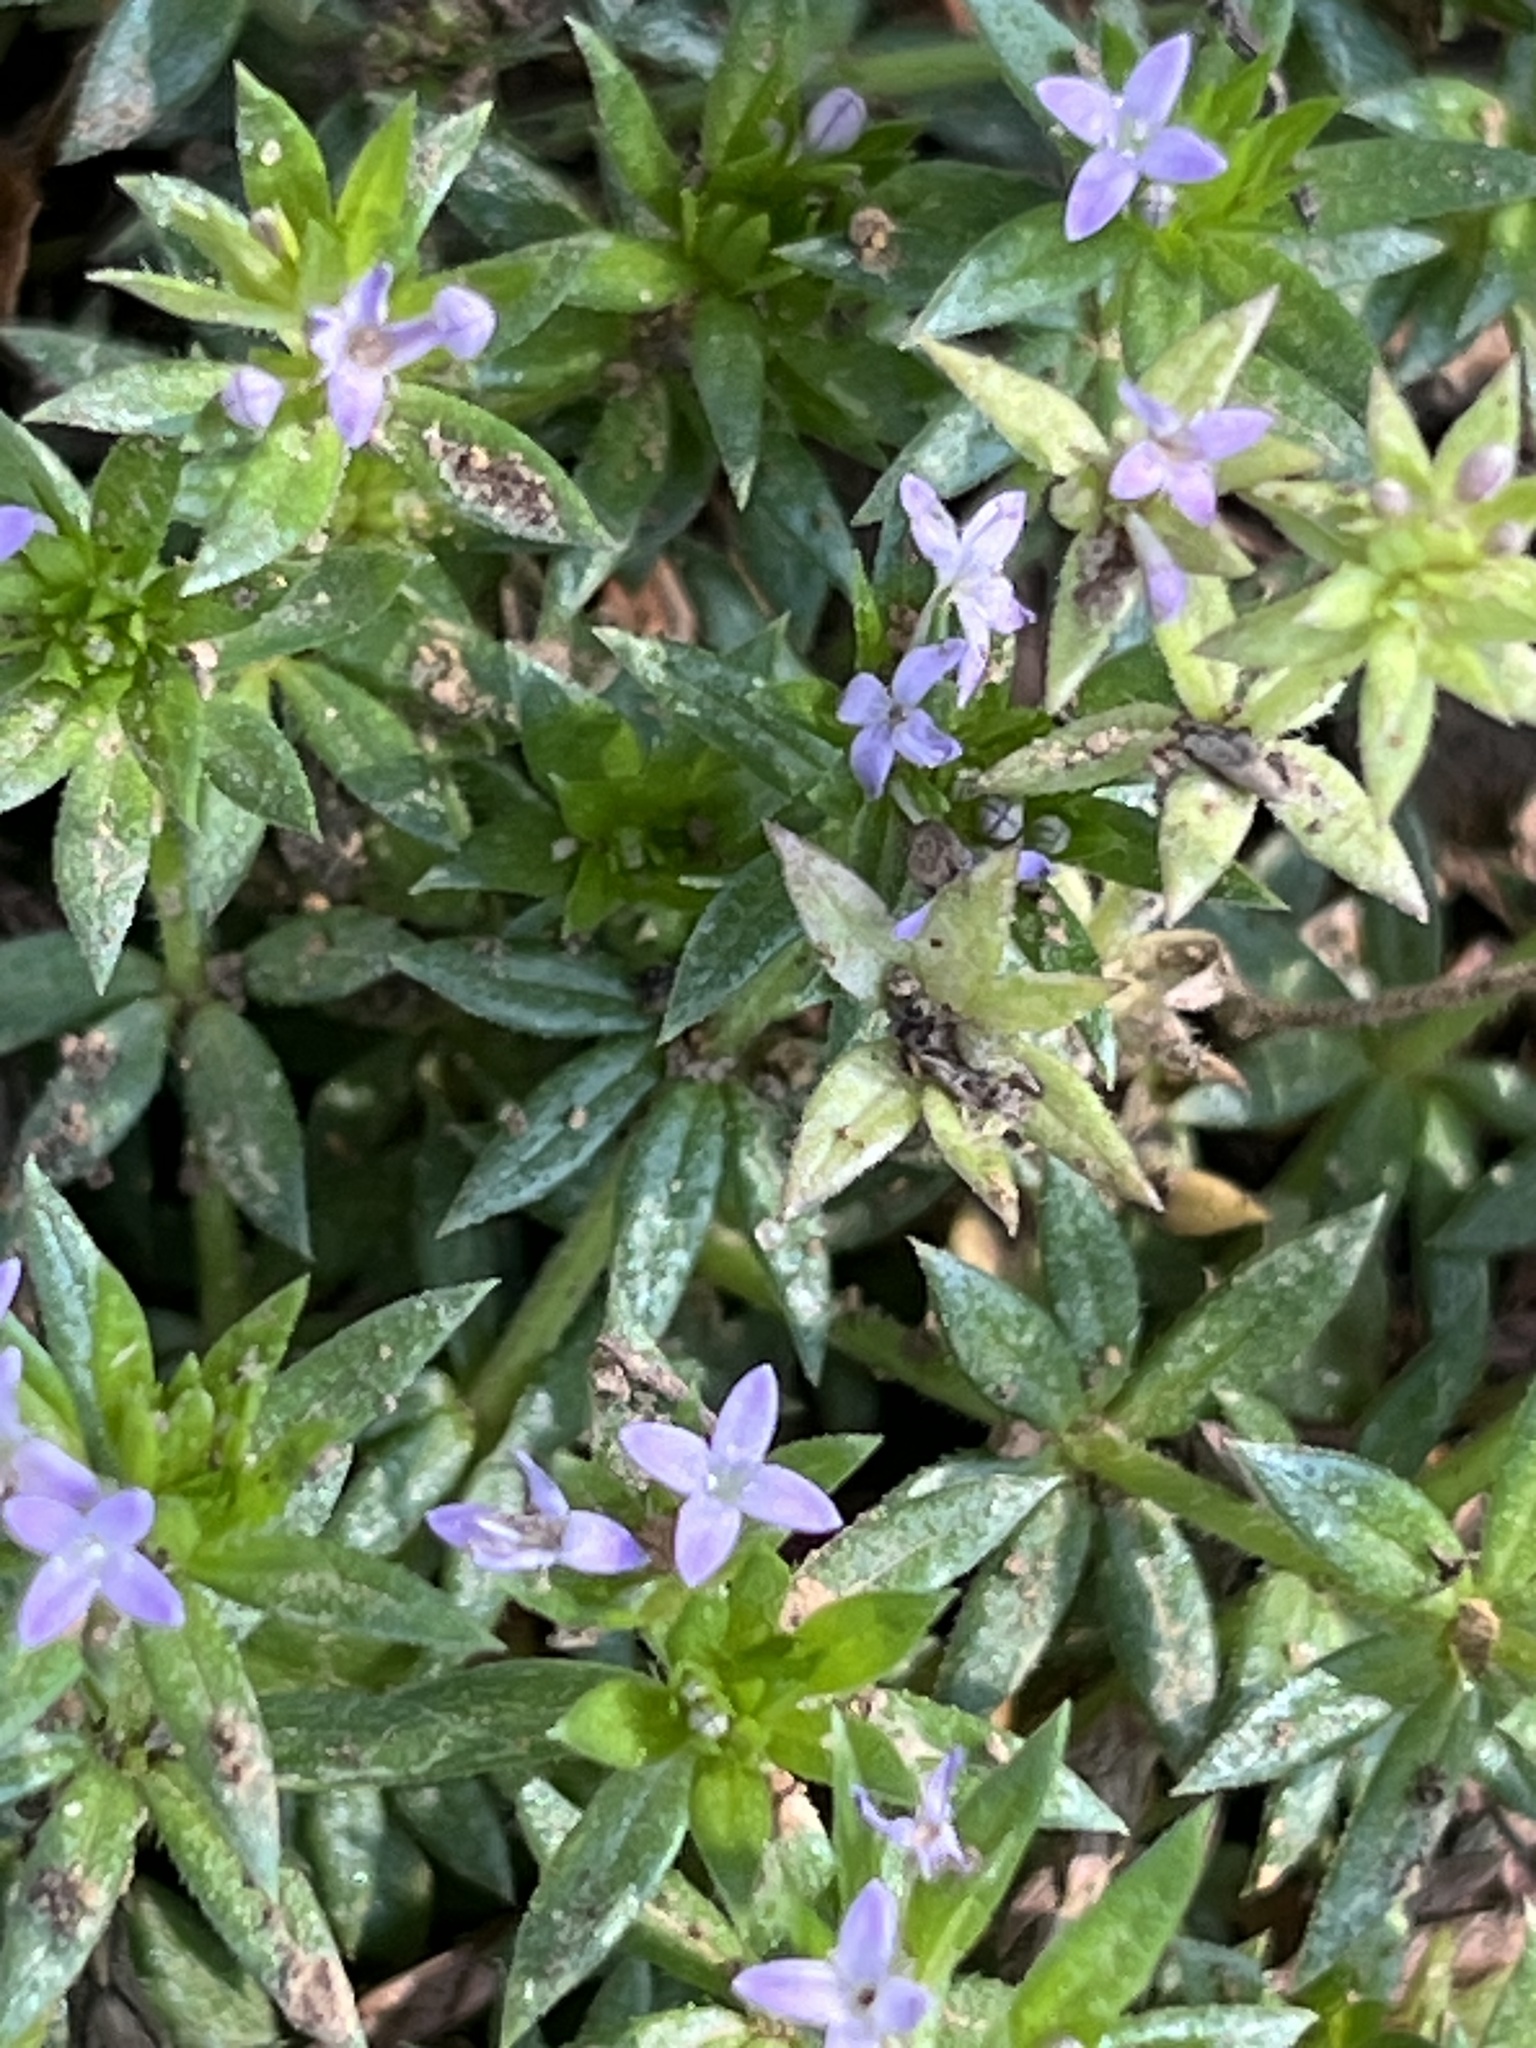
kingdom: Plantae
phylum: Tracheophyta
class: Magnoliopsida
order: Gentianales
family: Rubiaceae
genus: Sherardia
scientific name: Sherardia arvensis
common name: Field madder
